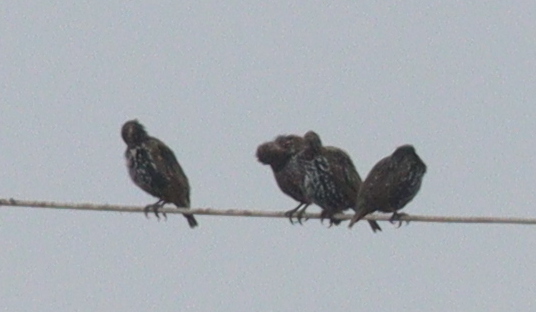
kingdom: Animalia
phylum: Chordata
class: Aves
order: Passeriformes
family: Sturnidae
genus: Sturnus
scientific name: Sturnus vulgaris
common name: Common starling
